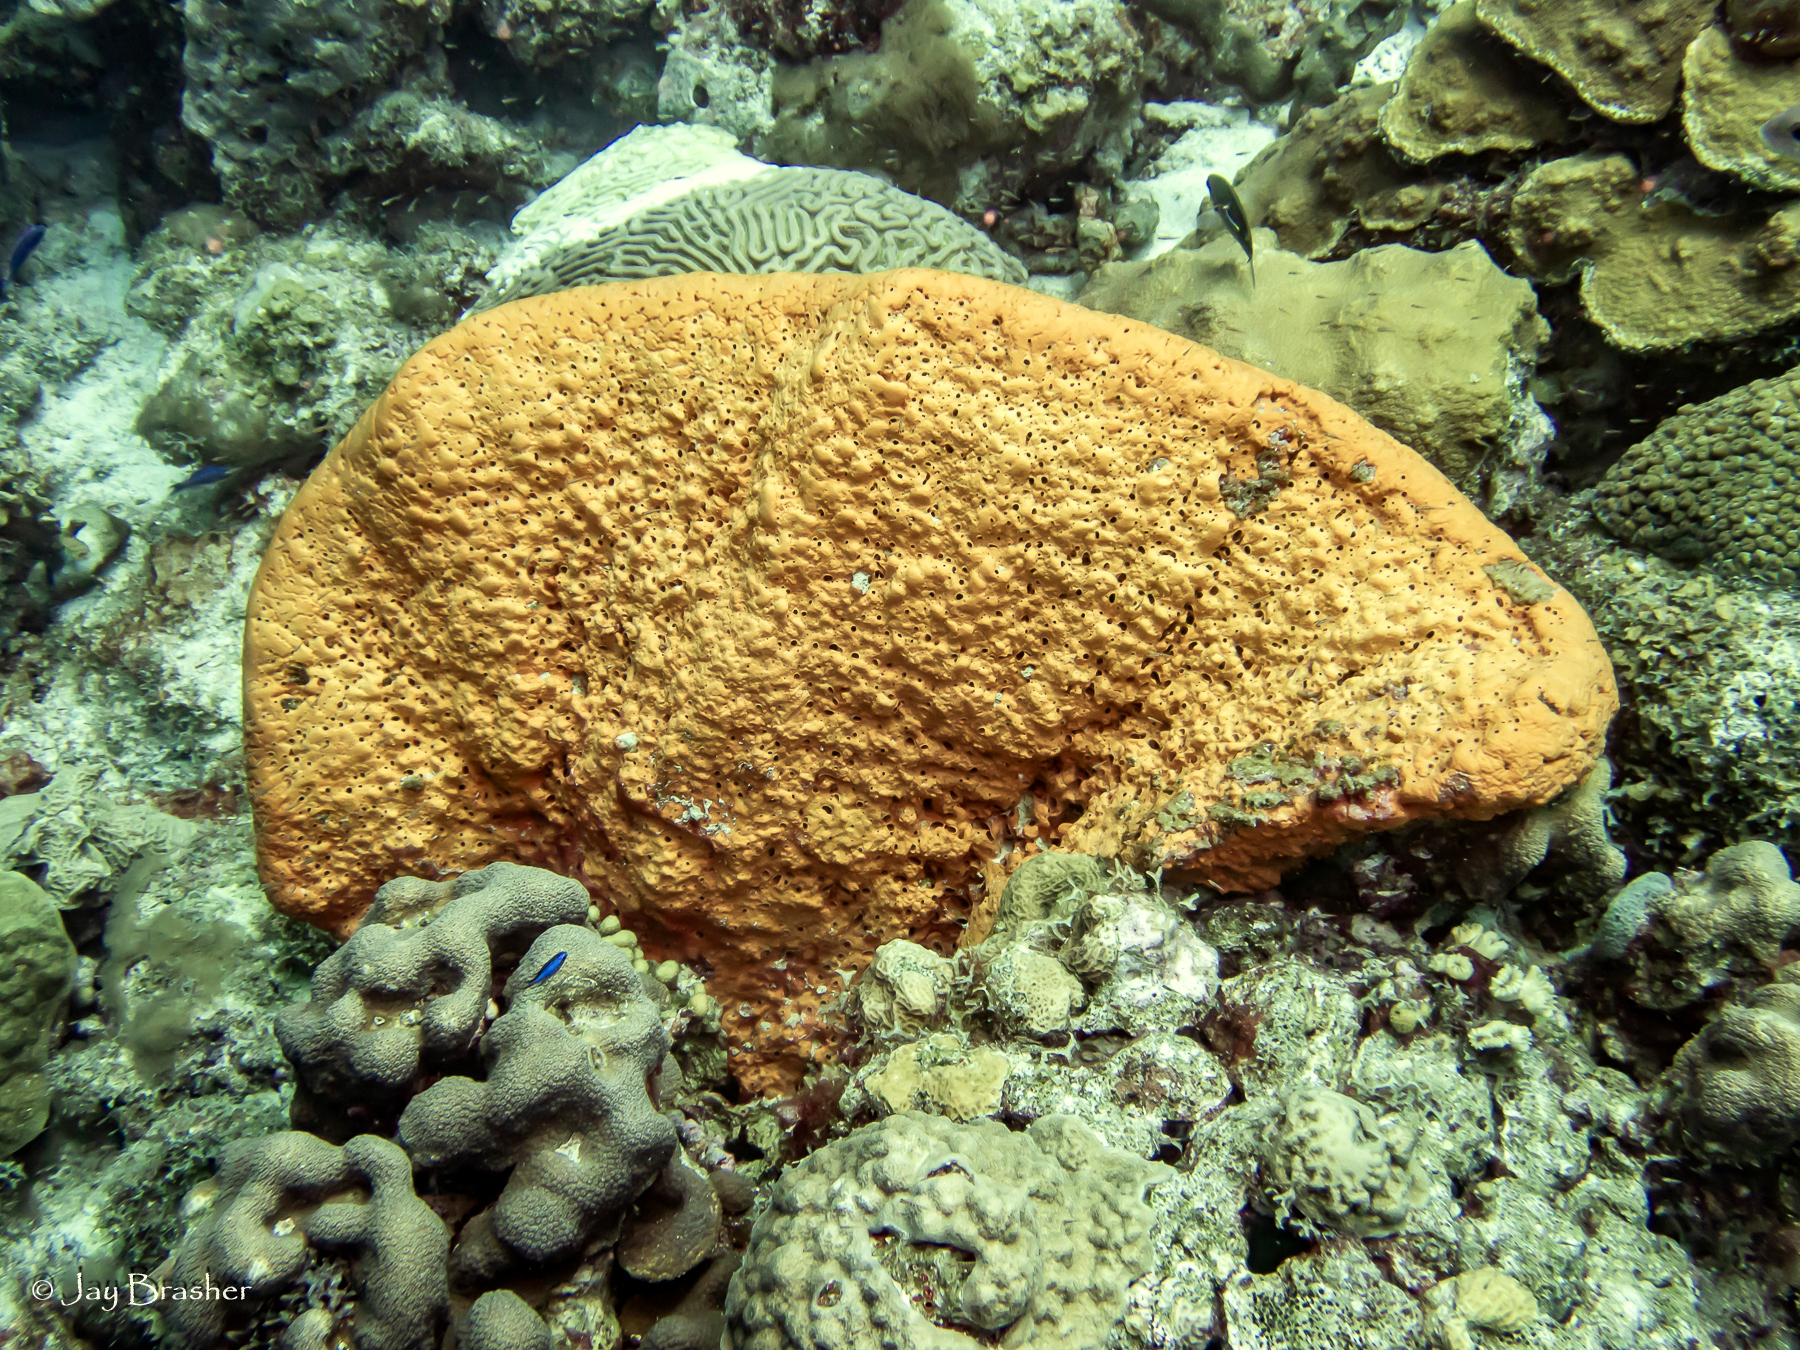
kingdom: Animalia
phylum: Porifera
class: Demospongiae
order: Agelasida
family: Agelasidae
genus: Agelas
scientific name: Agelas citrina
